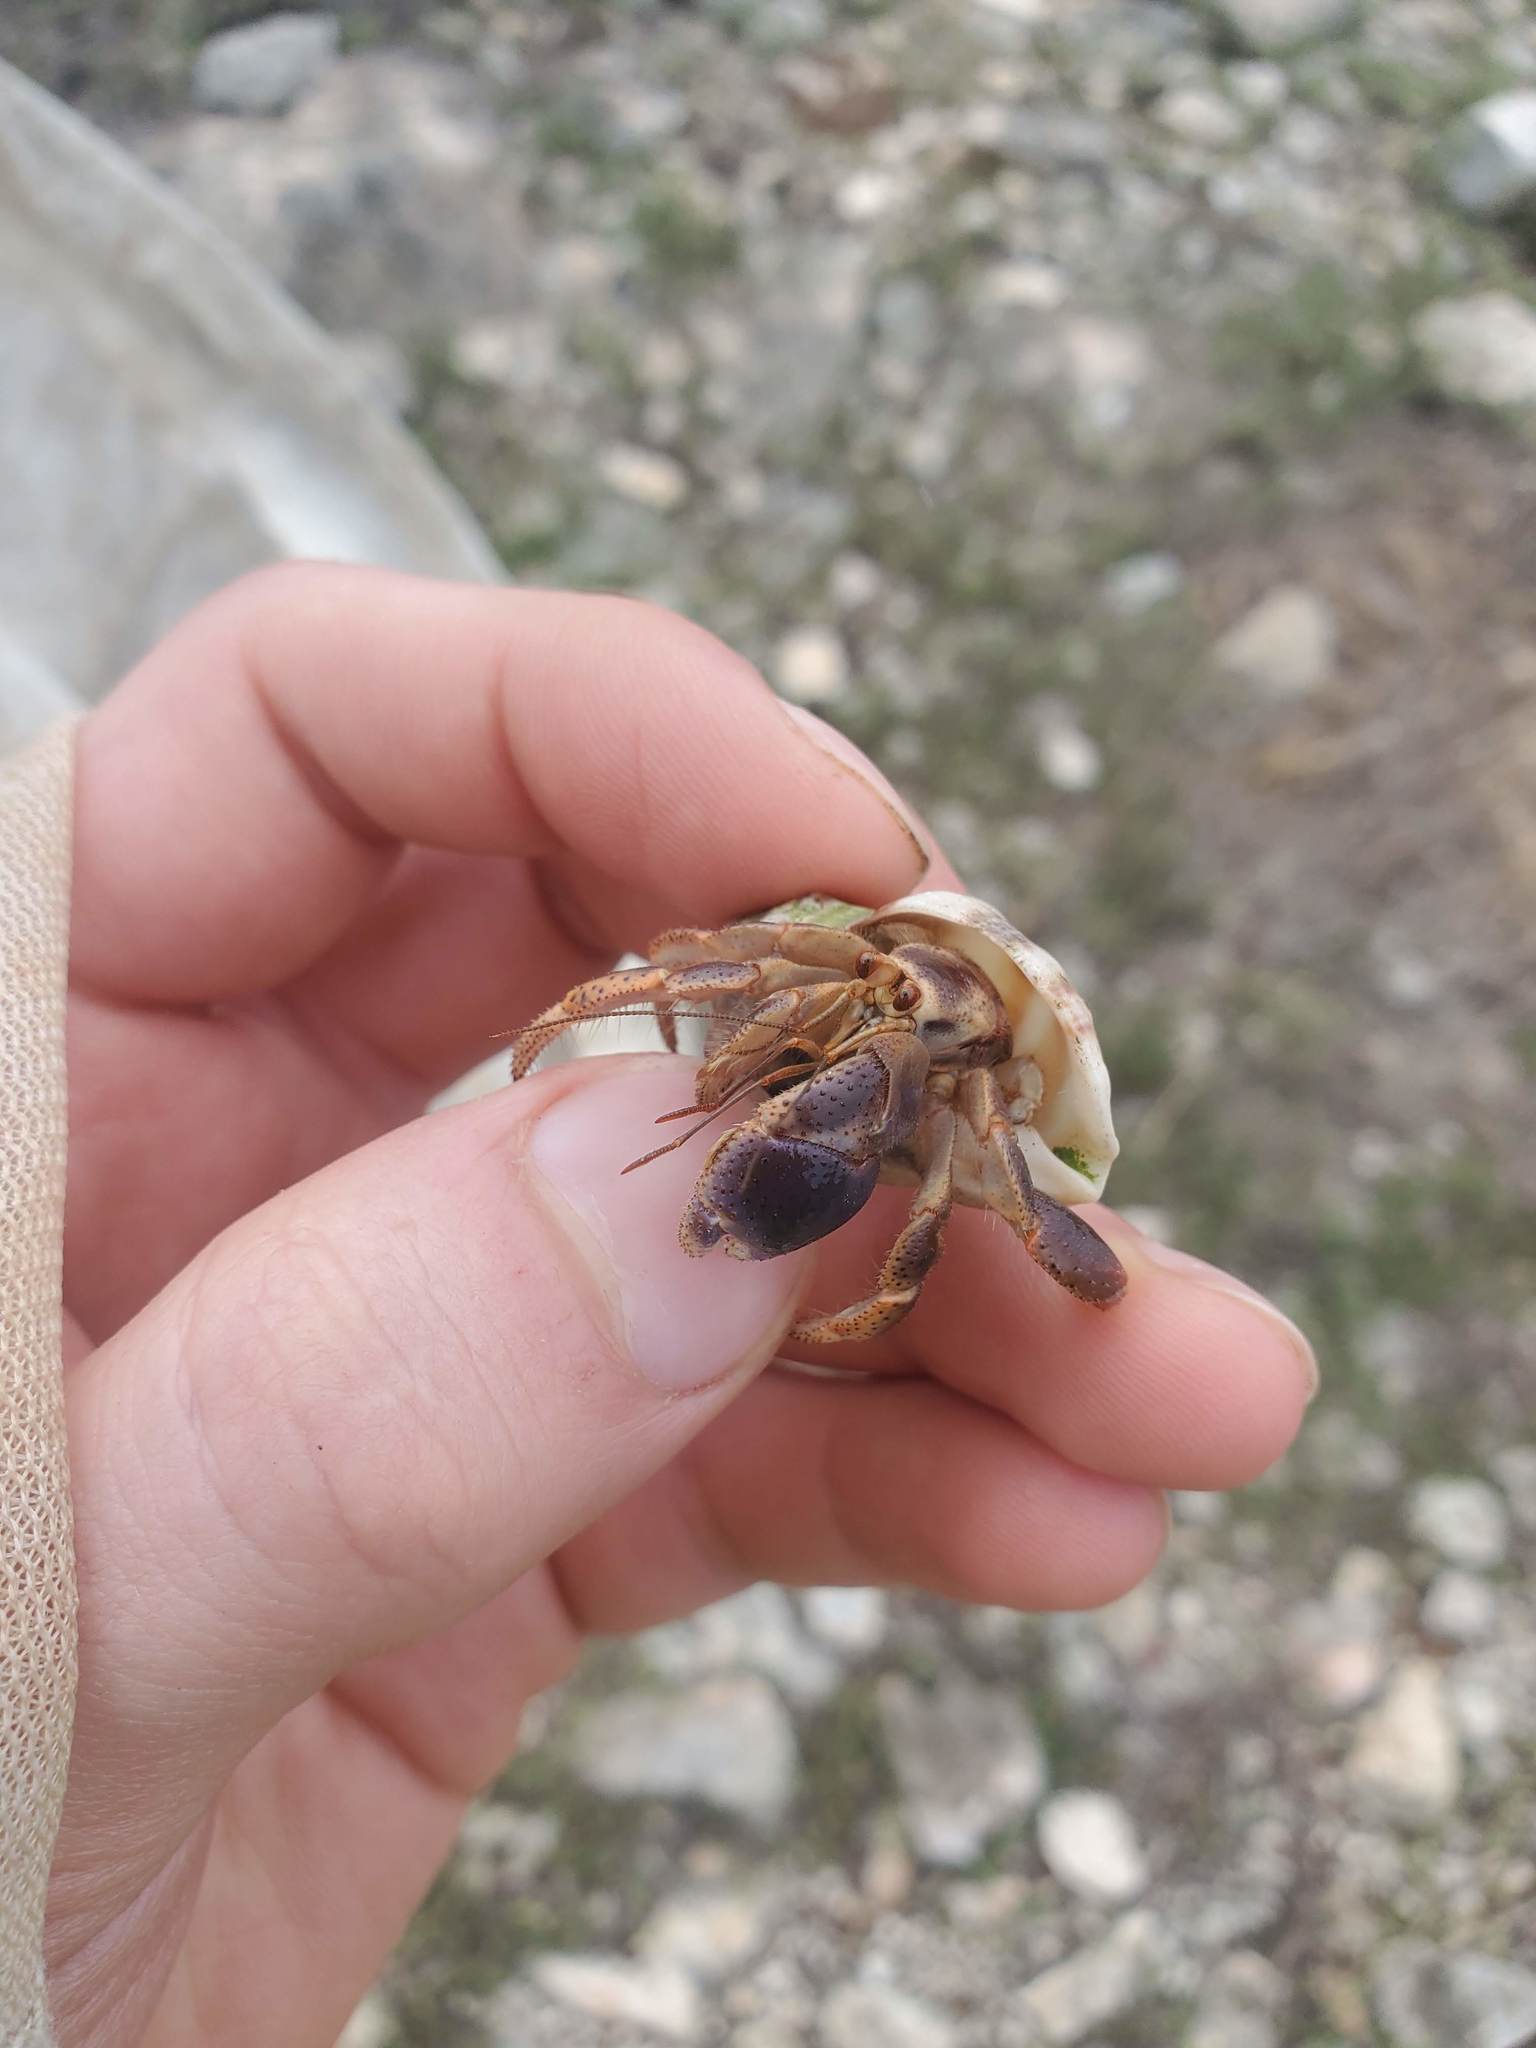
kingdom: Animalia
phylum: Arthropoda
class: Malacostraca
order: Decapoda
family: Coenobitidae
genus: Coenobita
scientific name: Coenobita clypeatus
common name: Caribbean hermit crab
